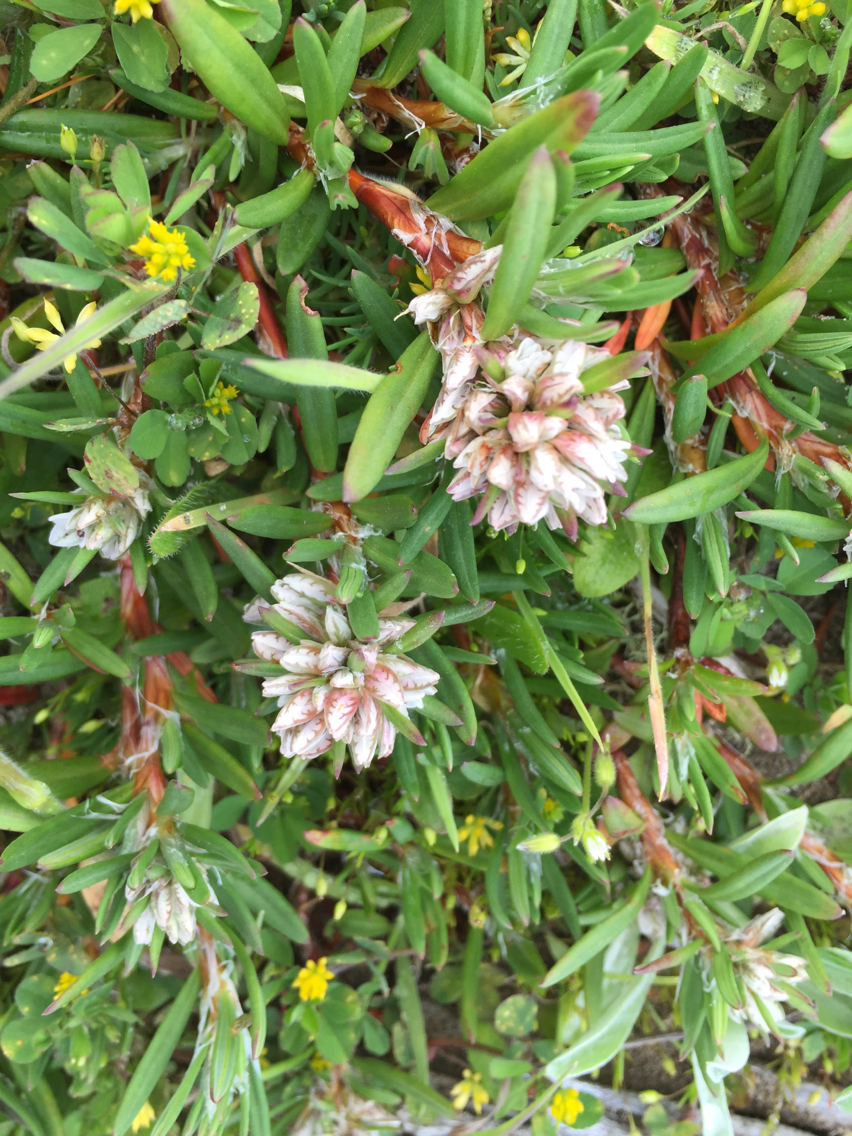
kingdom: Plantae
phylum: Tracheophyta
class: Magnoliopsida
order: Caryophyllales
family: Polygonaceae
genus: Polygonum
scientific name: Polygonum paronychia
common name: Dune knotweed
